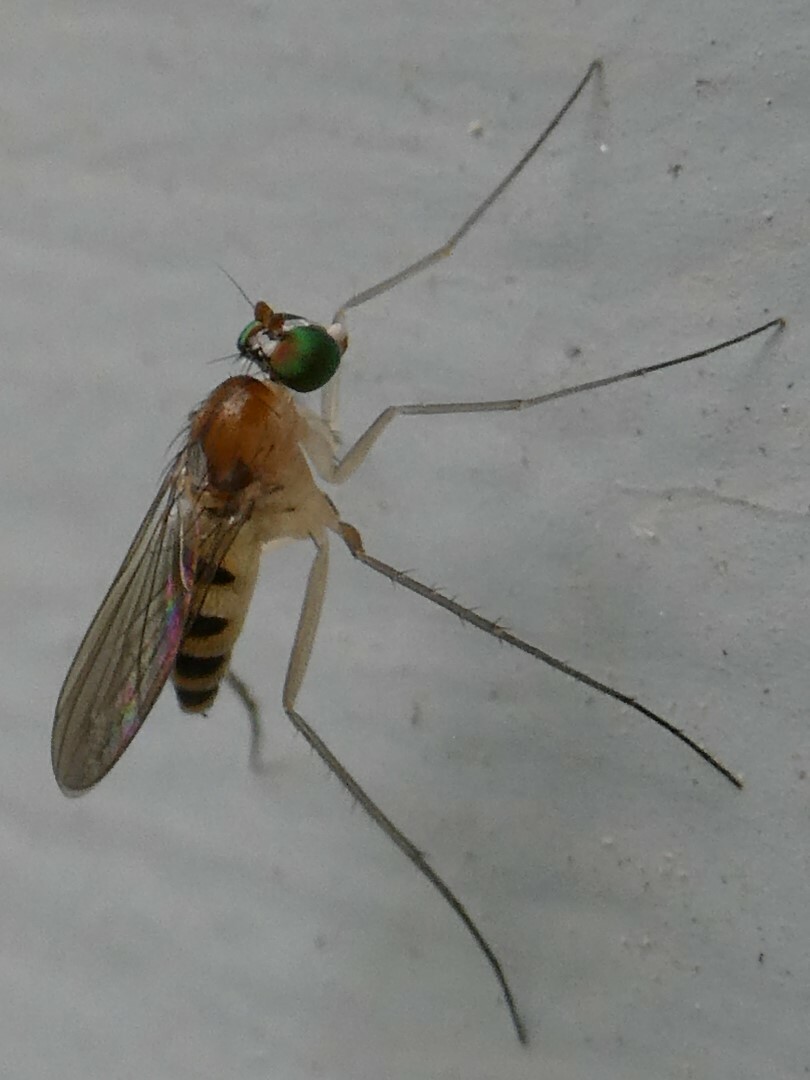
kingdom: Animalia
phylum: Arthropoda
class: Insecta
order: Diptera
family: Dolichopodidae
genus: Neurigona
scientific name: Neurigona rubella
